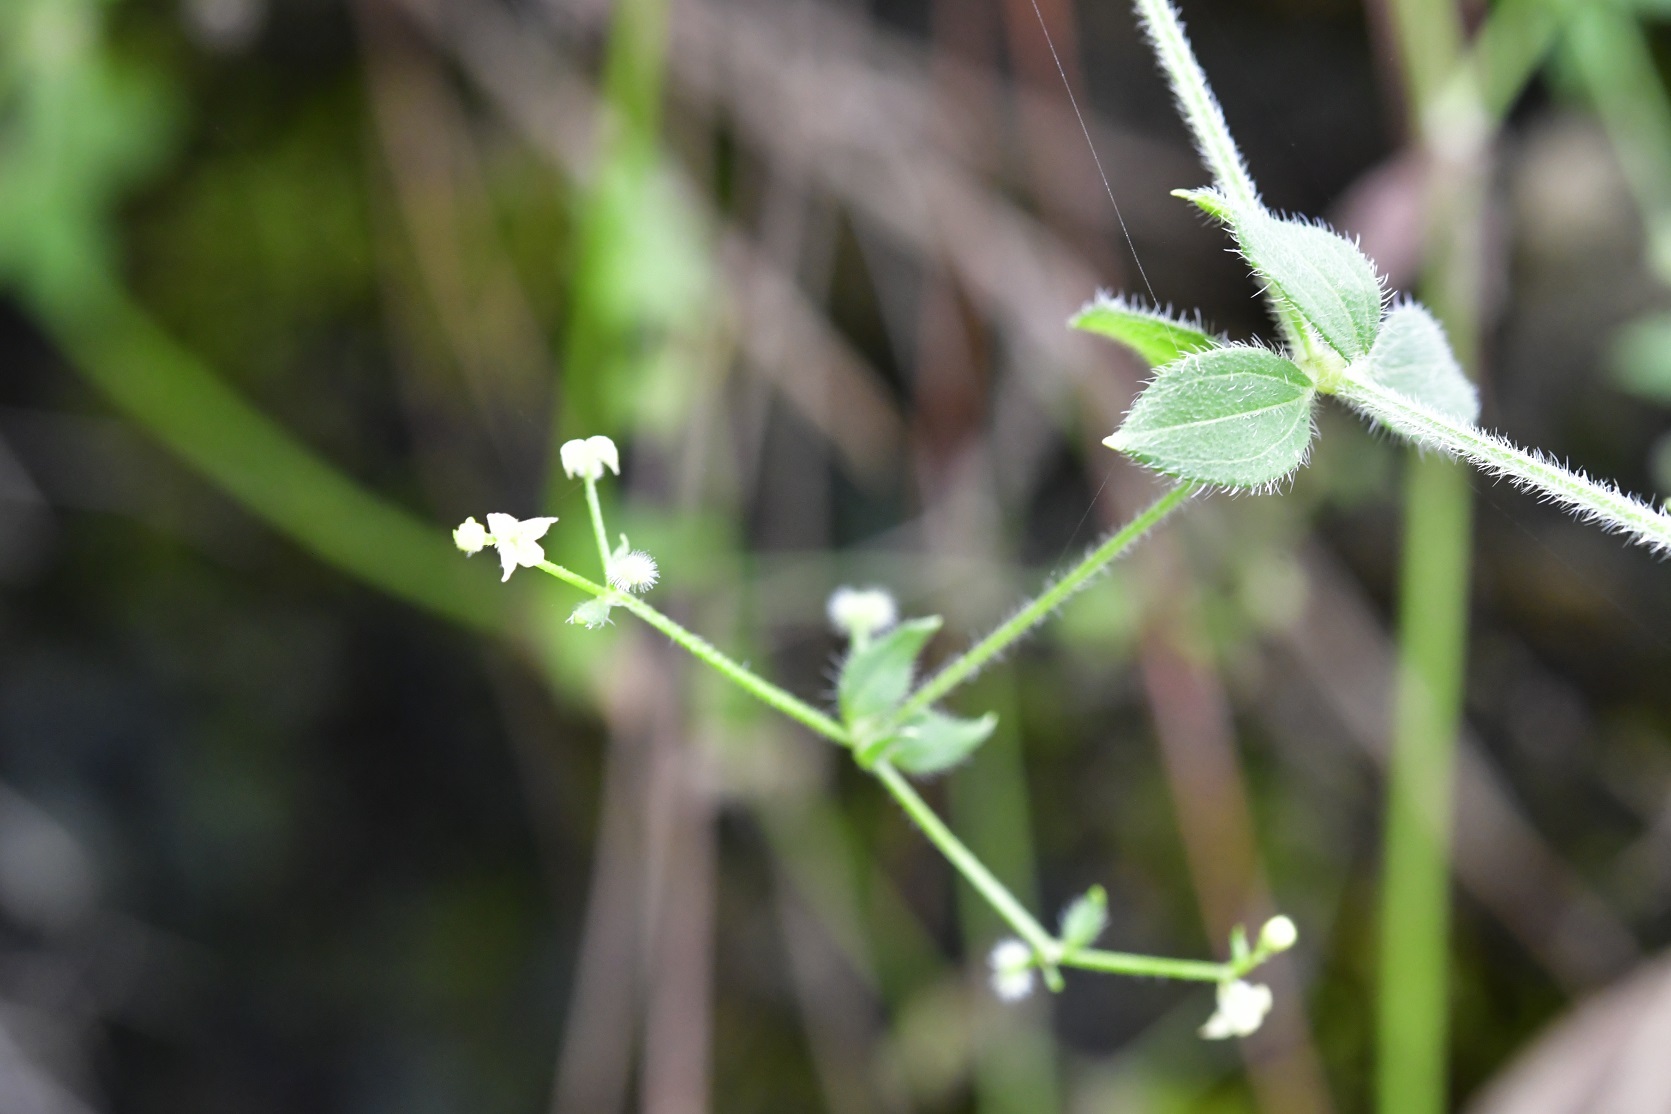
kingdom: Plantae
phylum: Tracheophyta
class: Magnoliopsida
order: Gentianales
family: Rubiaceae
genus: Galium
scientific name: Galium uncinulatum
